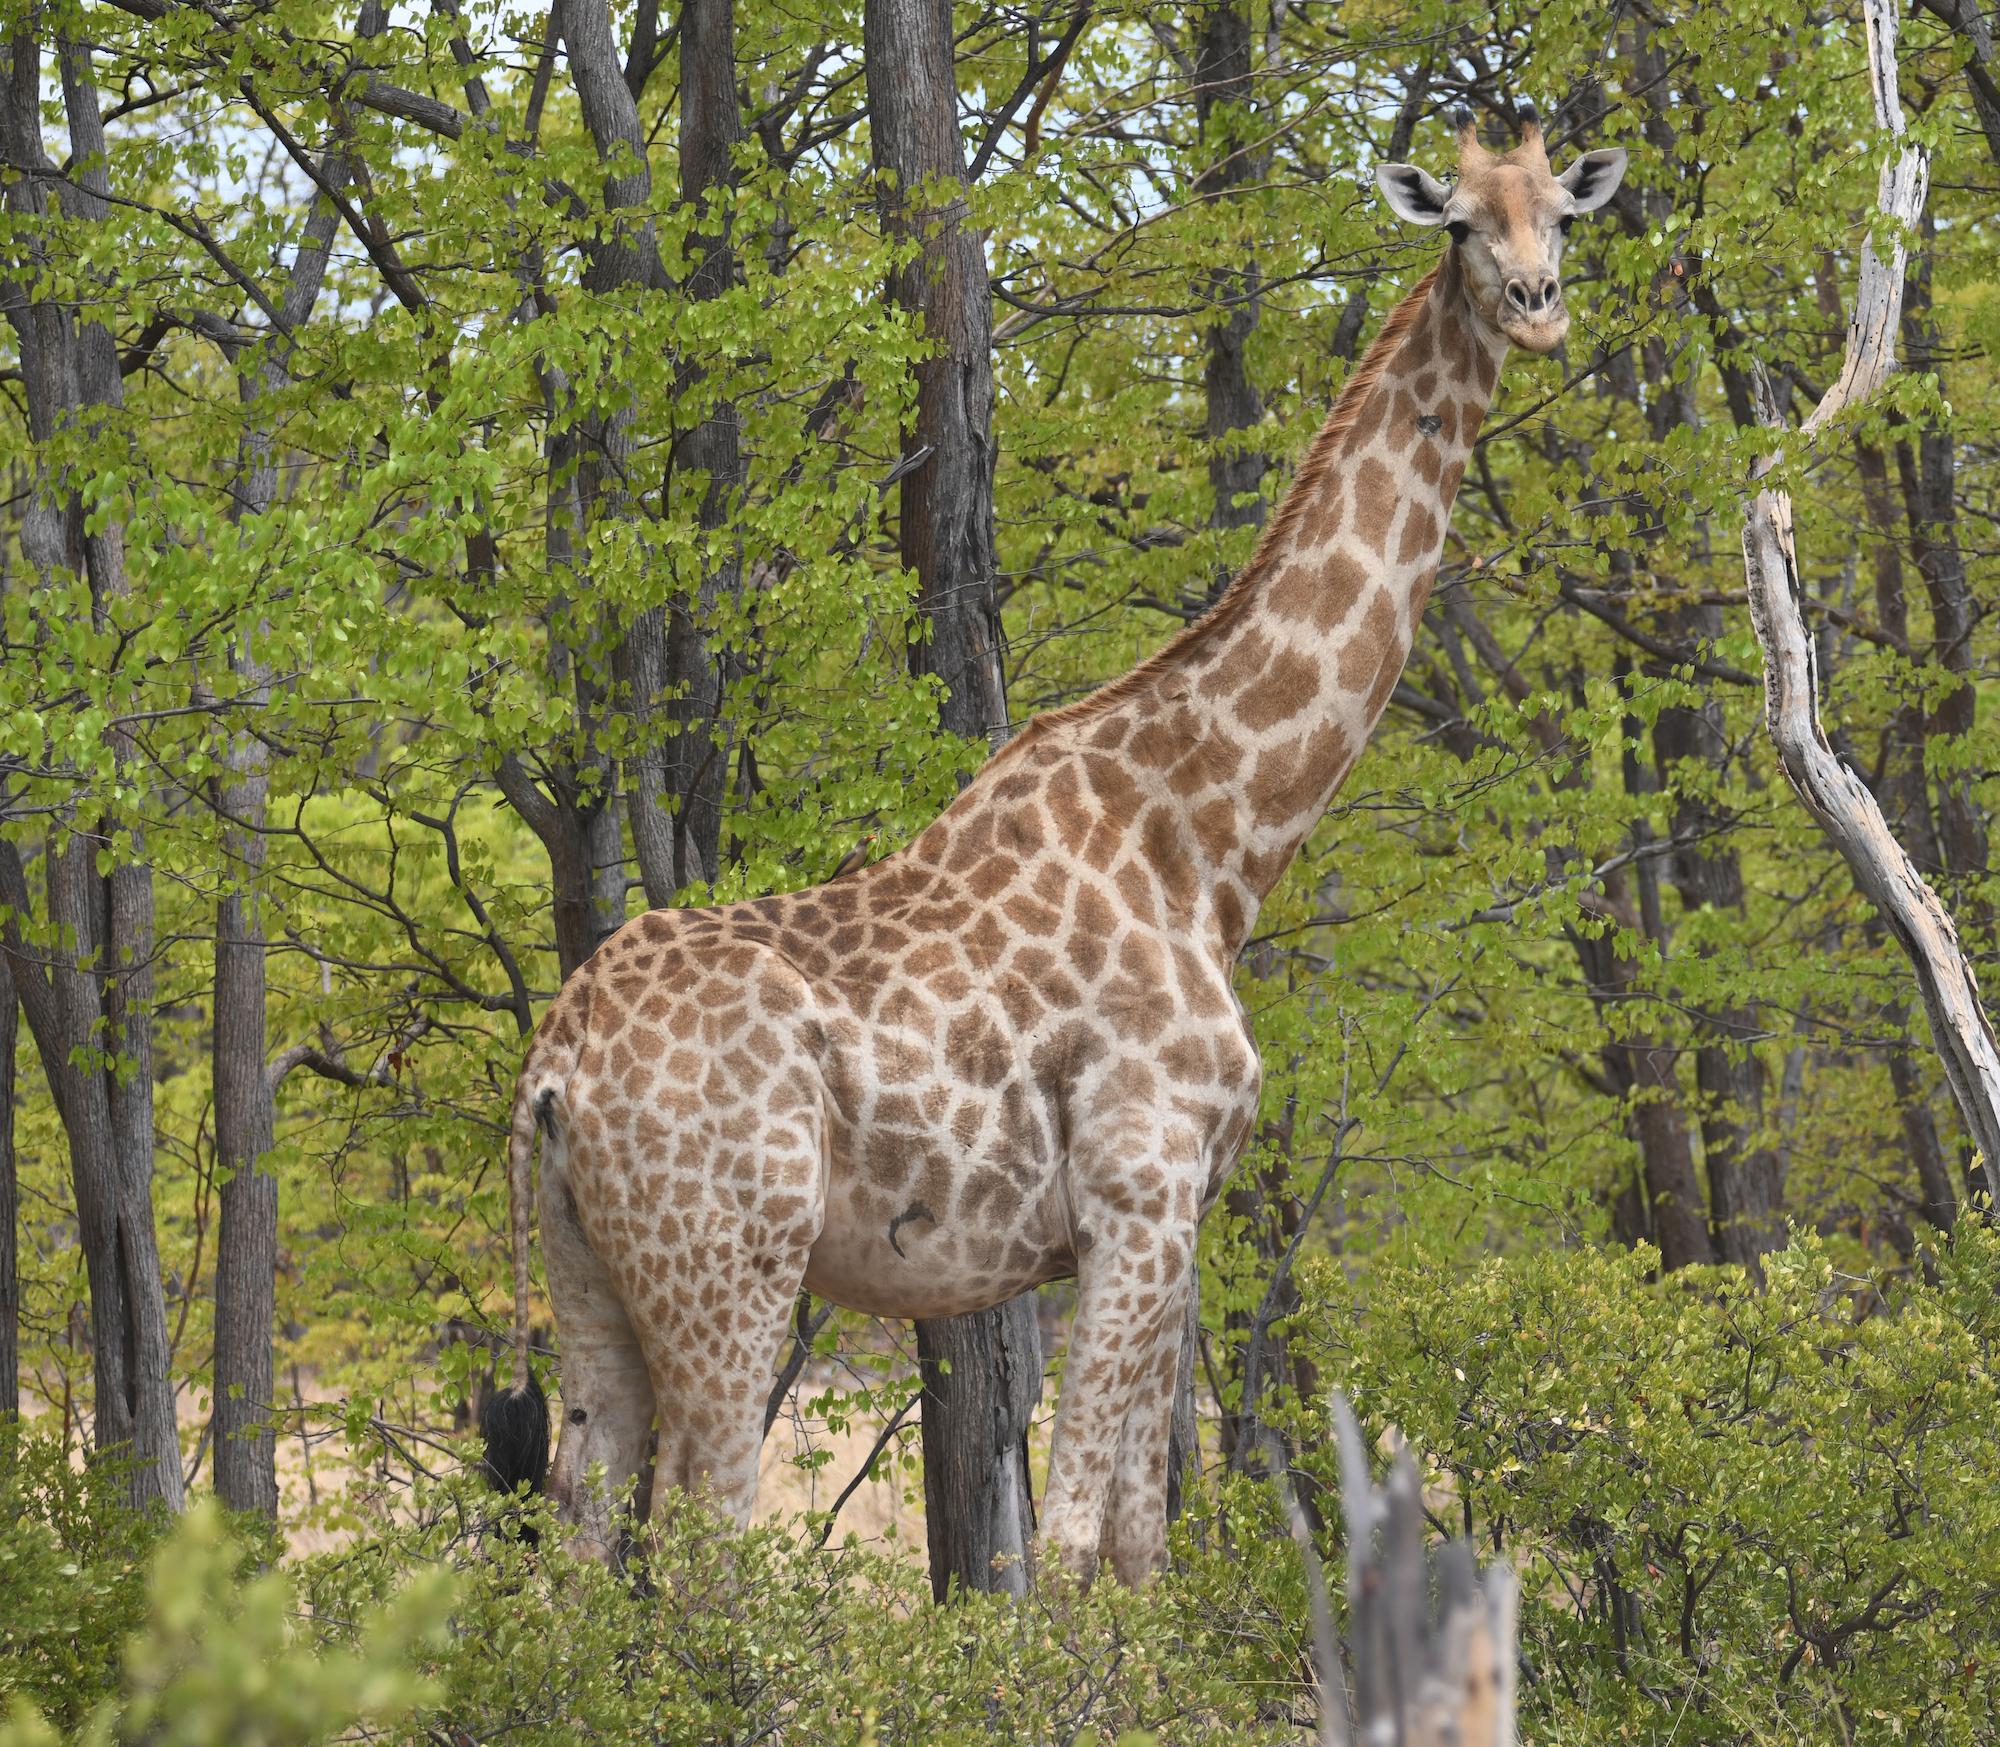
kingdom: Animalia
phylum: Chordata
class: Mammalia
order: Artiodactyla
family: Giraffidae
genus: Giraffa
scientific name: Giraffa giraffa
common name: Southern giraffe
